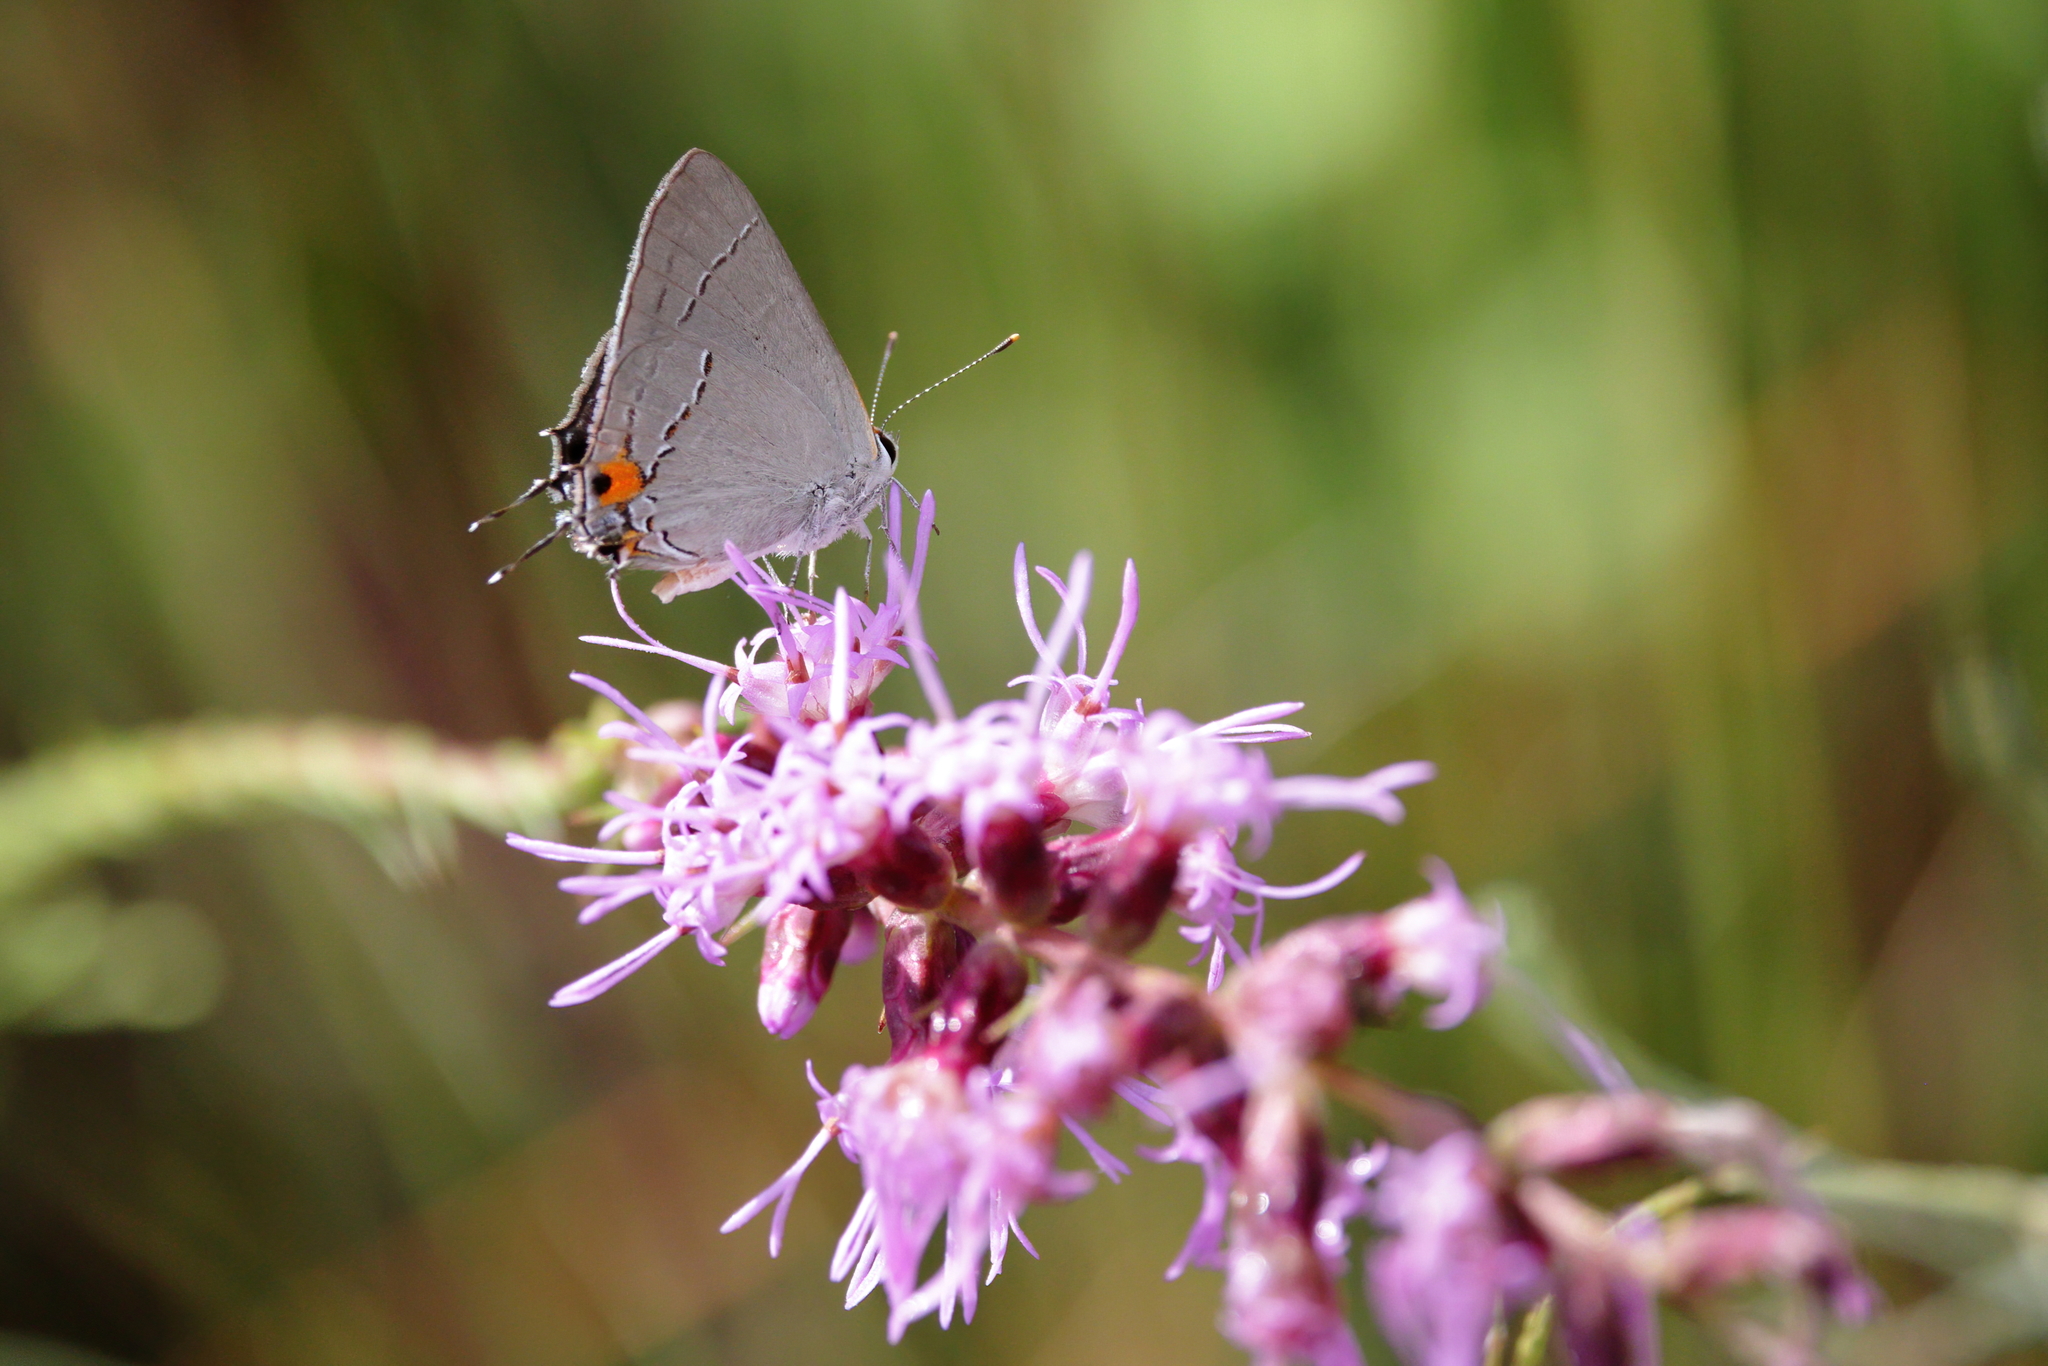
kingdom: Animalia
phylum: Arthropoda
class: Insecta
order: Lepidoptera
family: Lycaenidae
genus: Strymon
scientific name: Strymon melinus
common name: Gray hairstreak
